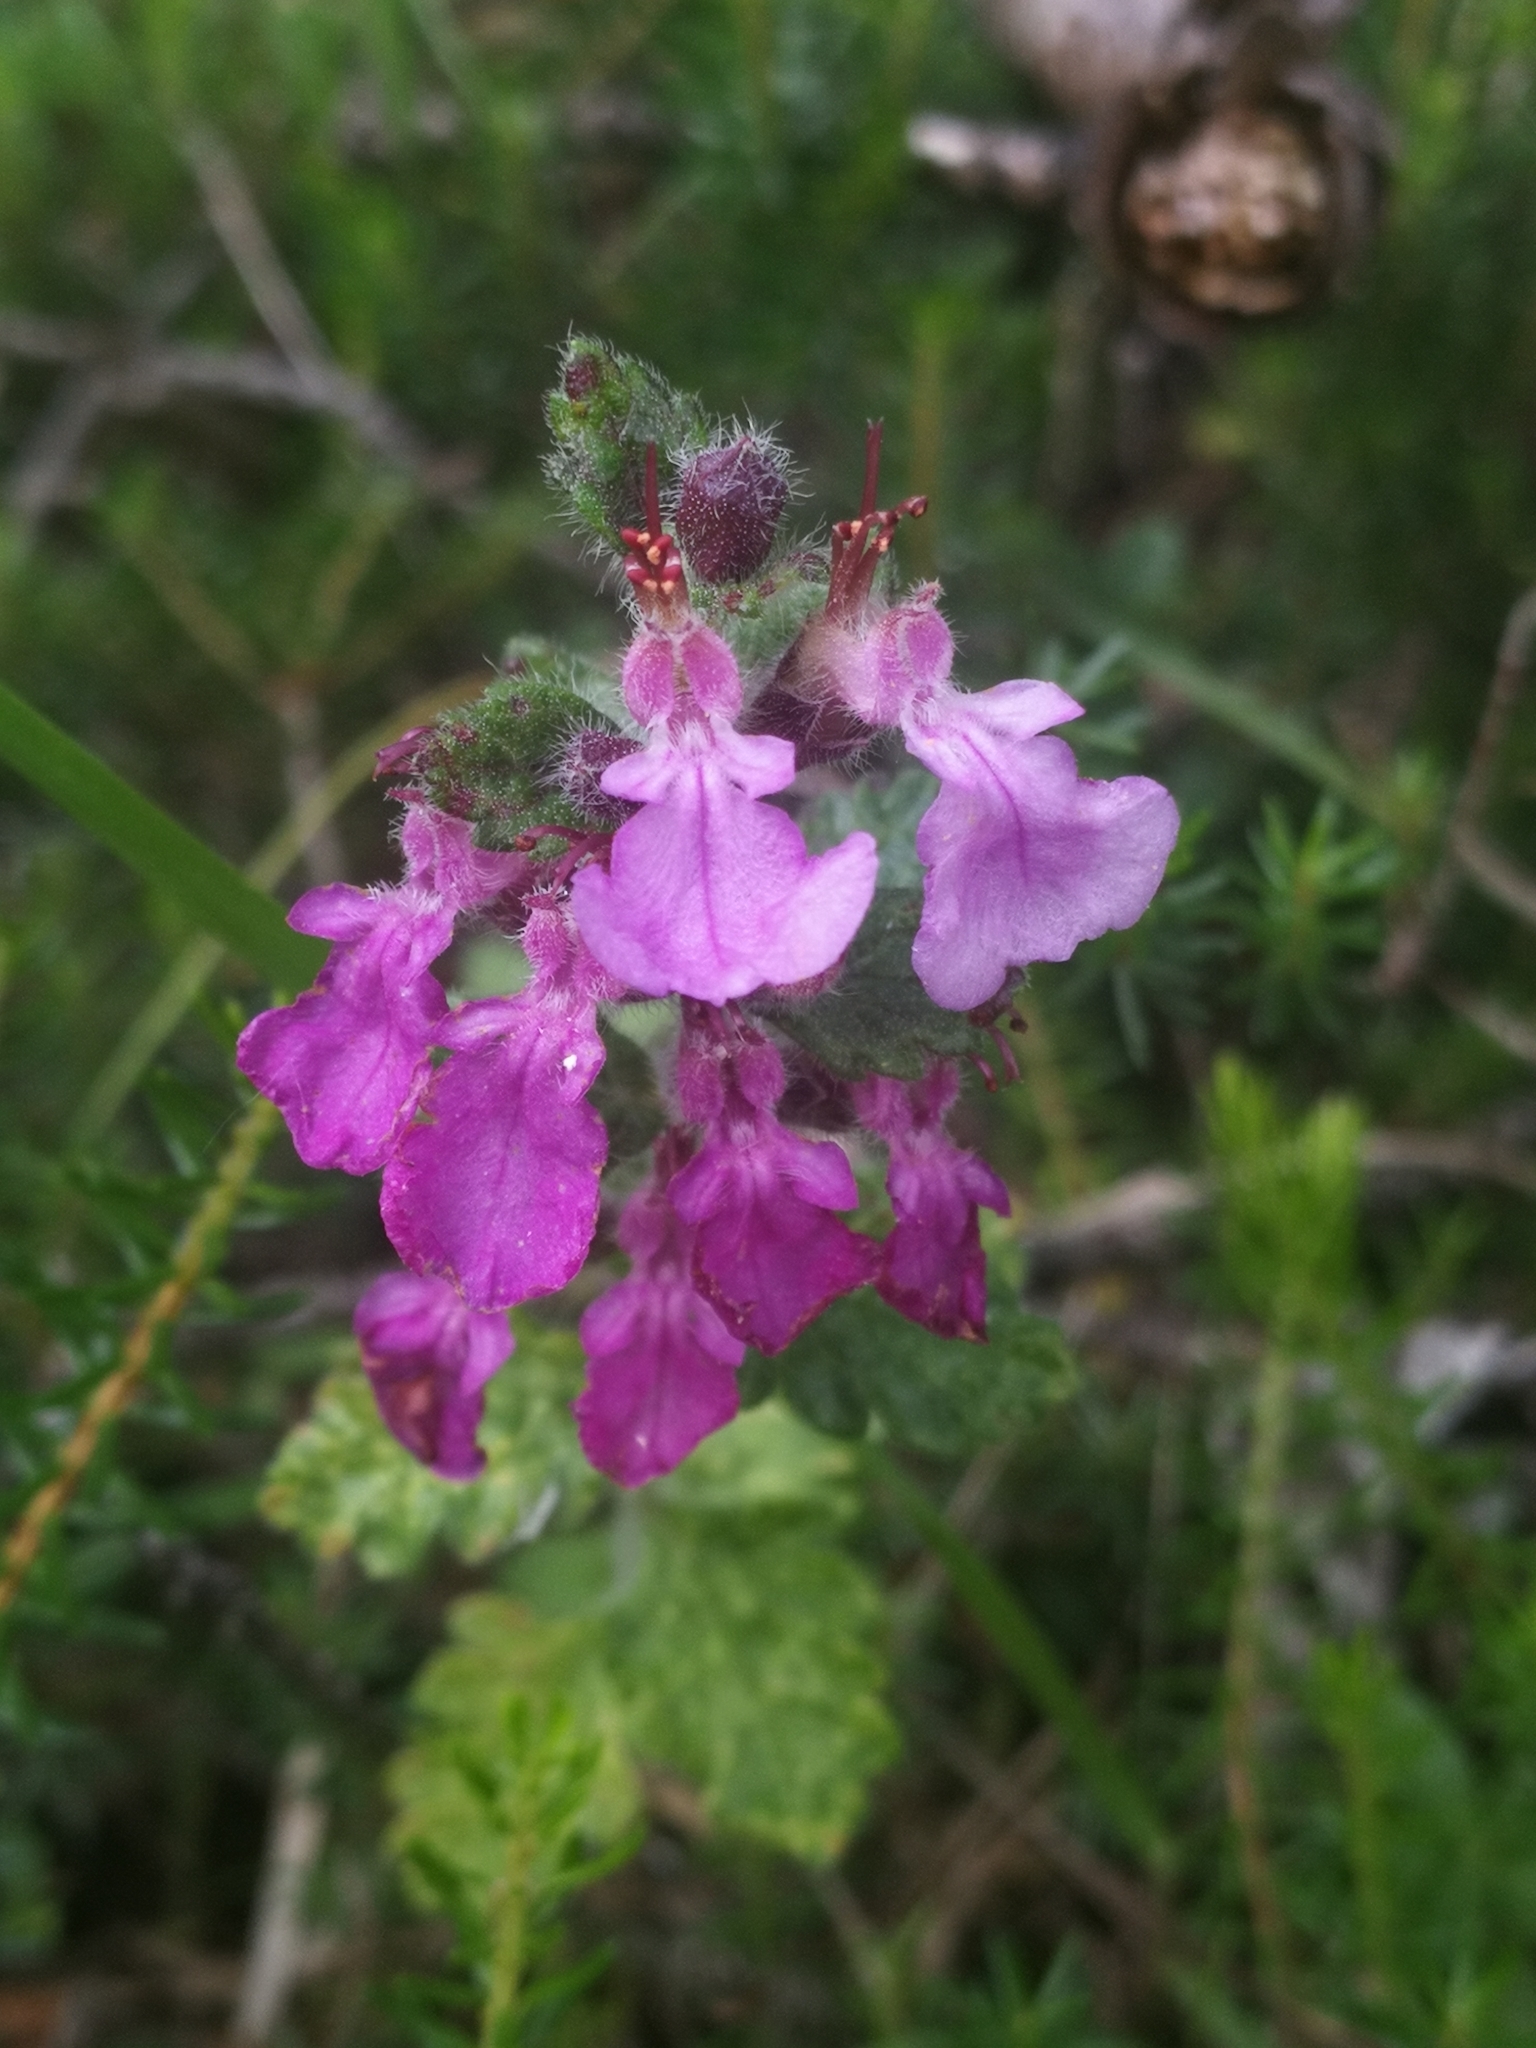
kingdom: Plantae
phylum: Tracheophyta
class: Magnoliopsida
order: Lamiales
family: Lamiaceae
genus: Teucrium
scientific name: Teucrium chamaedrys
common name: Wall germander
